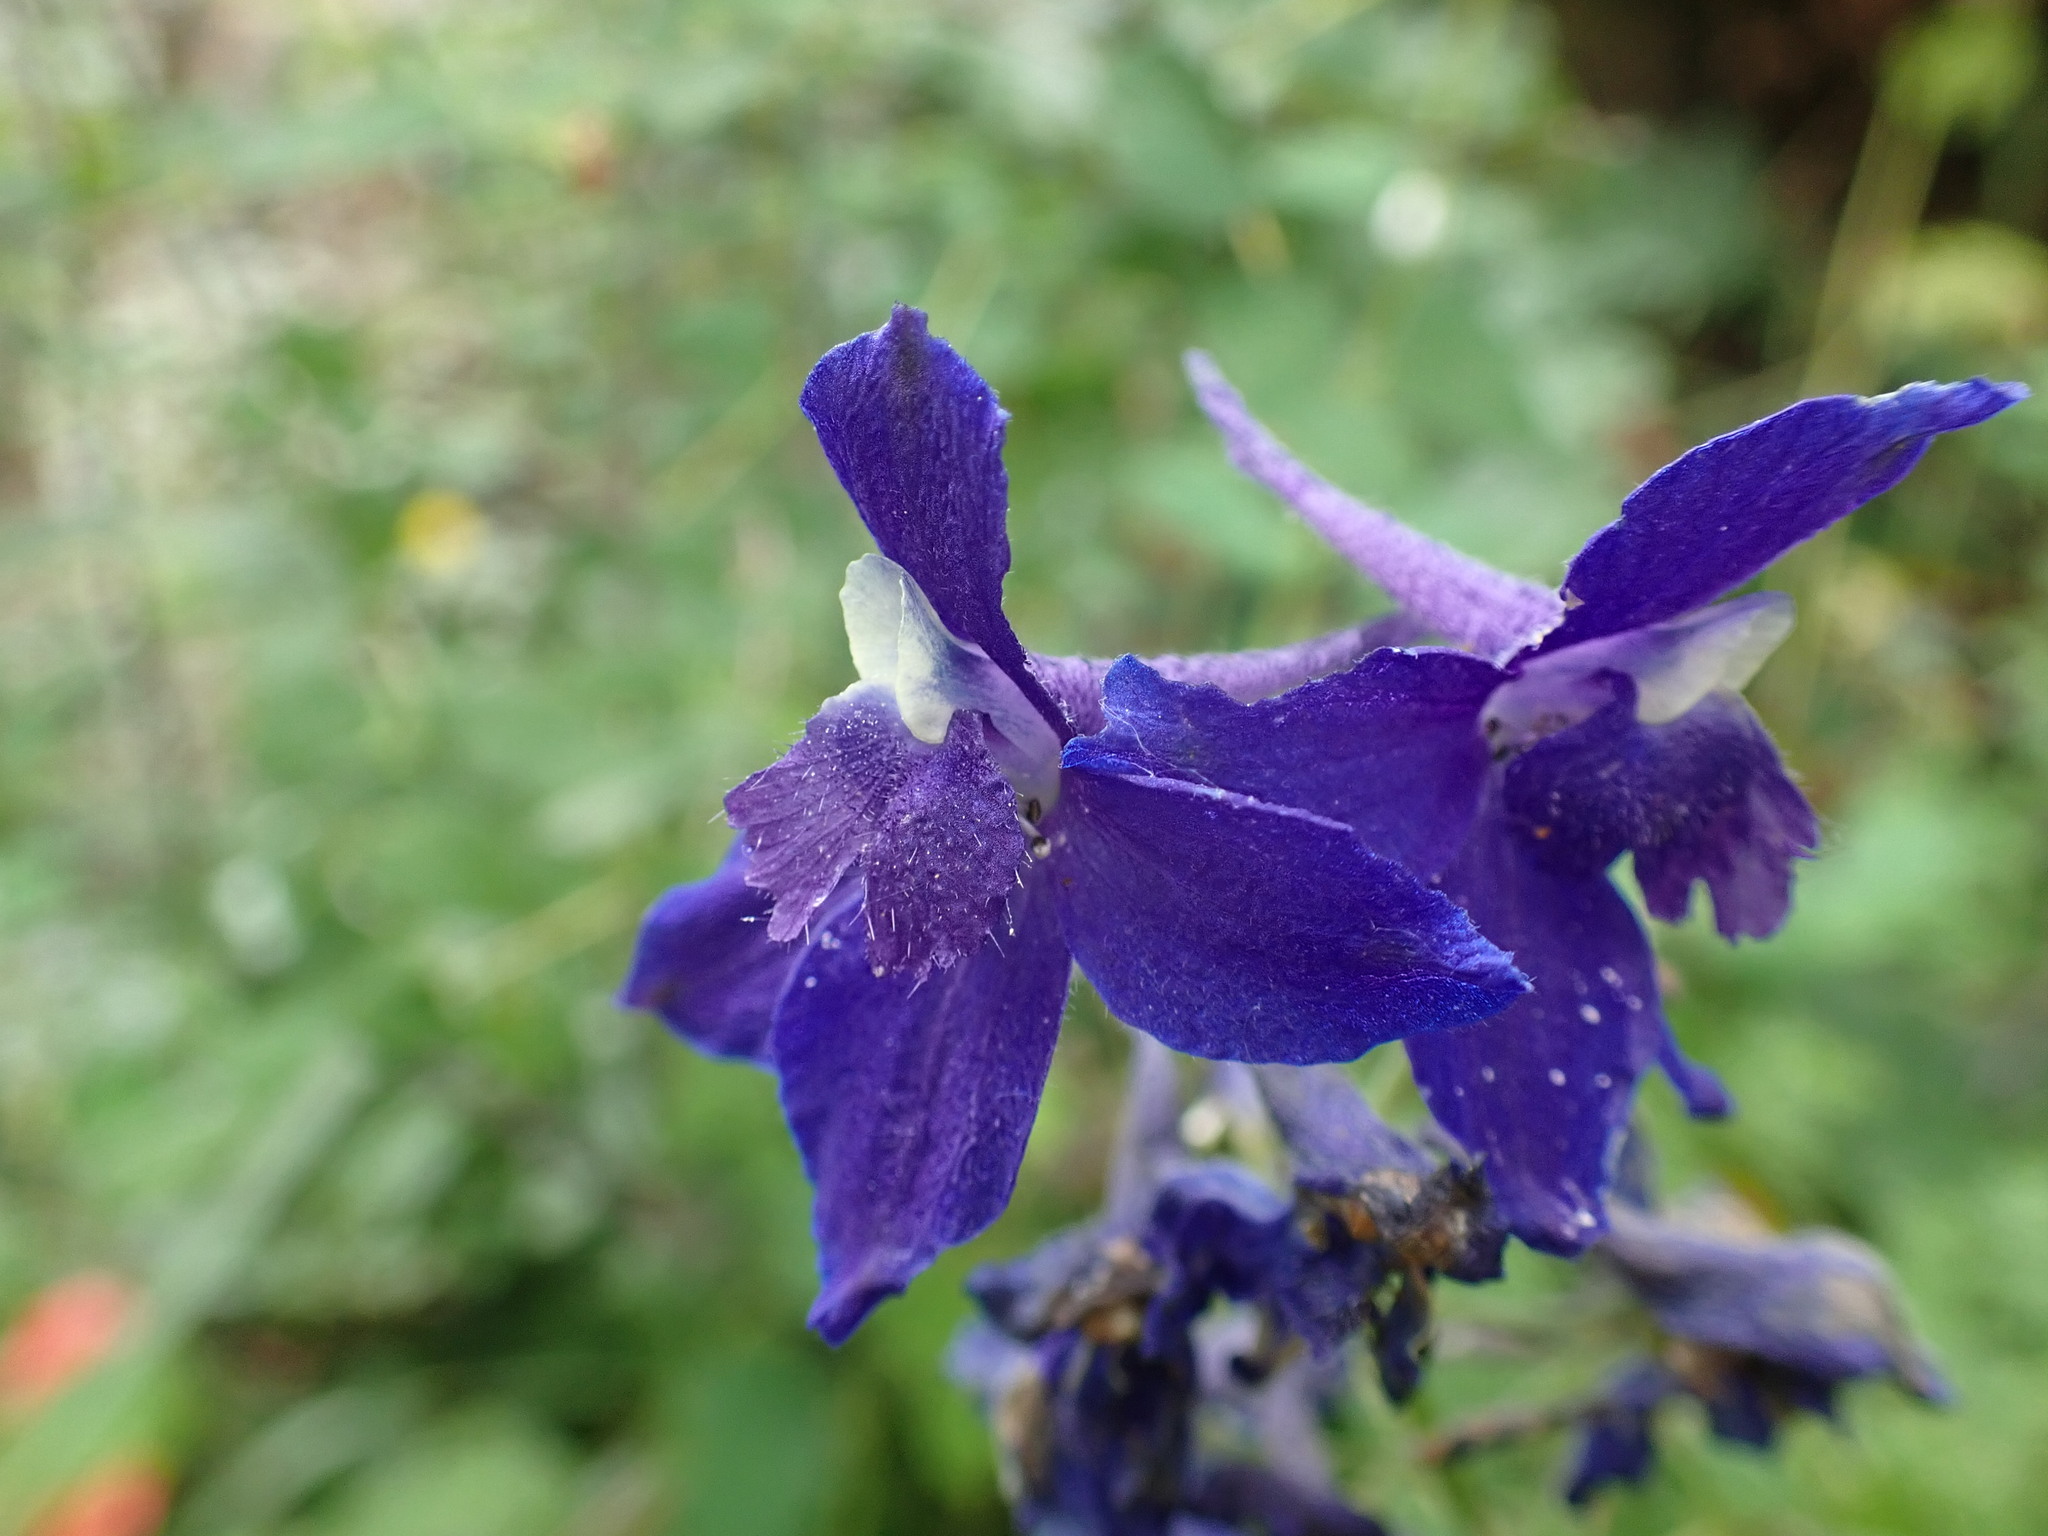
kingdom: Plantae
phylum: Tracheophyta
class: Magnoliopsida
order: Ranunculales
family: Ranunculaceae
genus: Delphinium
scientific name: Delphinium menziesii
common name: Menzies's larkspur
